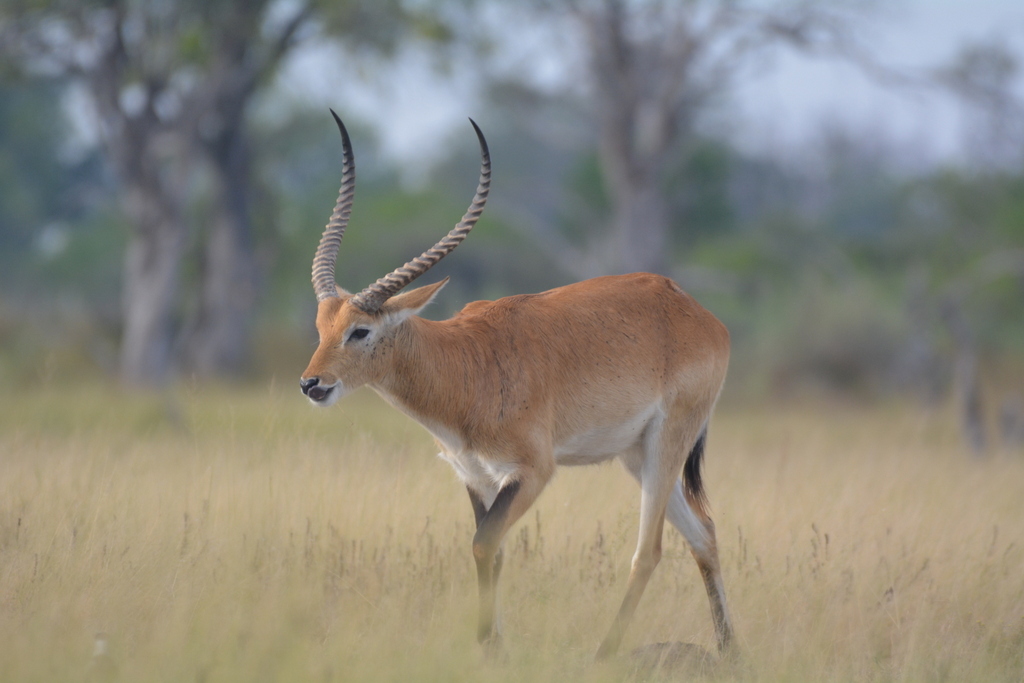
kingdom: Animalia
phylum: Chordata
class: Mammalia
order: Artiodactyla
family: Bovidae
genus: Kobus
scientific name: Kobus leche
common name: Lechwe
